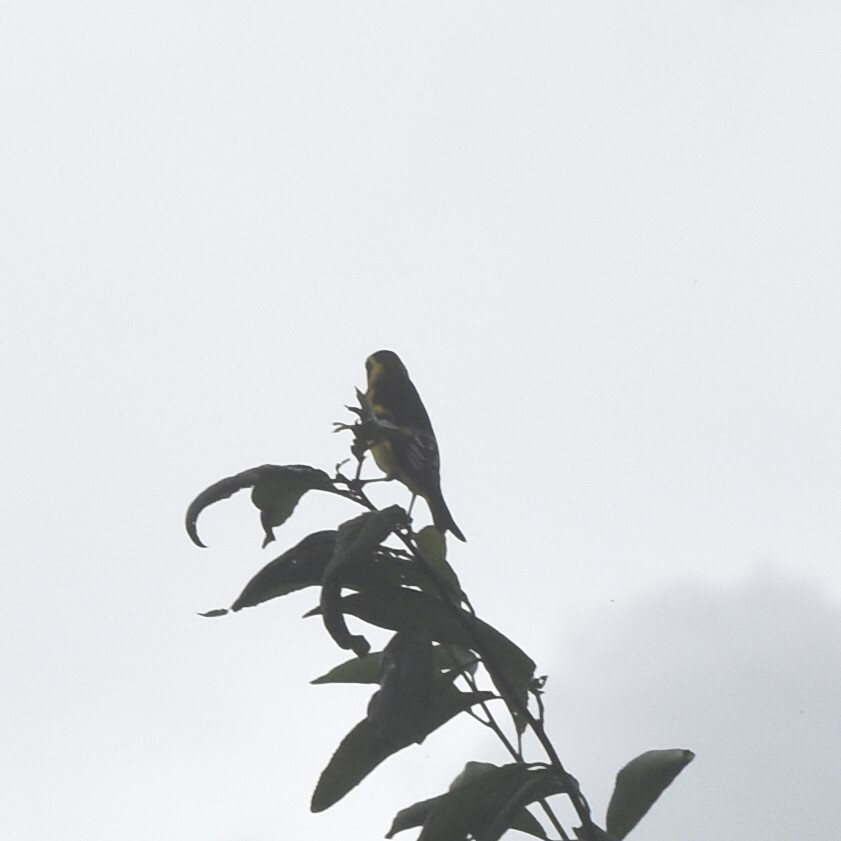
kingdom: Animalia
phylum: Chordata
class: Aves
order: Passeriformes
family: Fringillidae
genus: Chloris
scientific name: Chloris spinoides
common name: Yellow-breasted greenfinch
